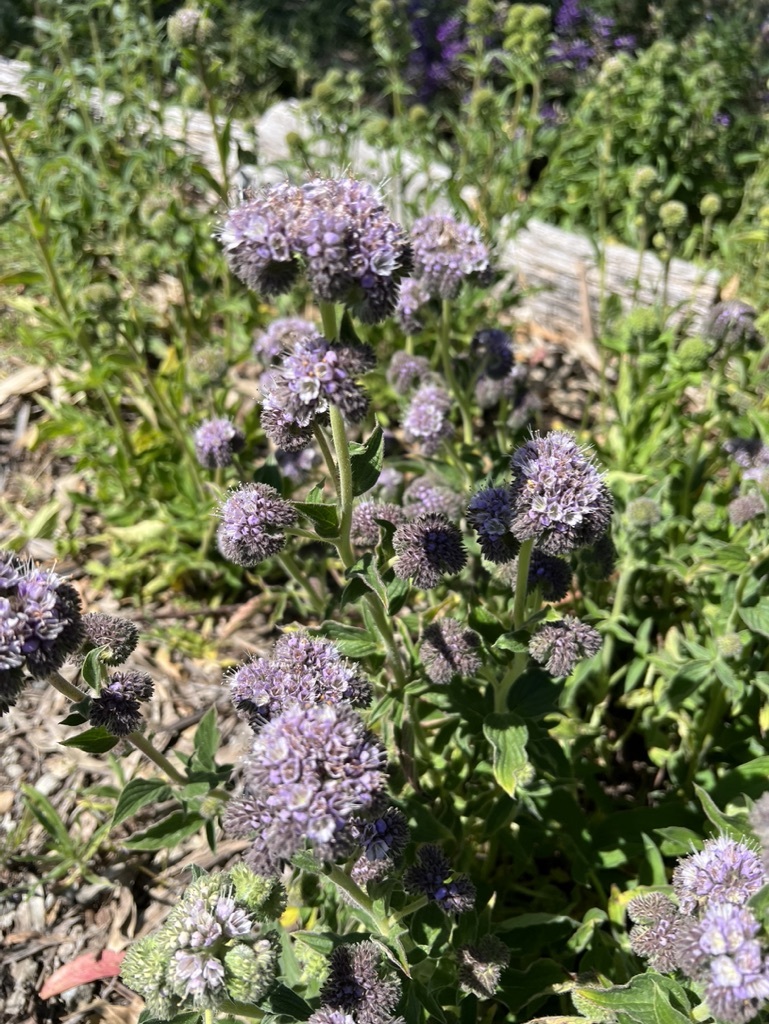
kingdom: Plantae
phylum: Tracheophyta
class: Magnoliopsida
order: Boraginales
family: Hydrophyllaceae
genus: Phacelia
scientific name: Phacelia californica
